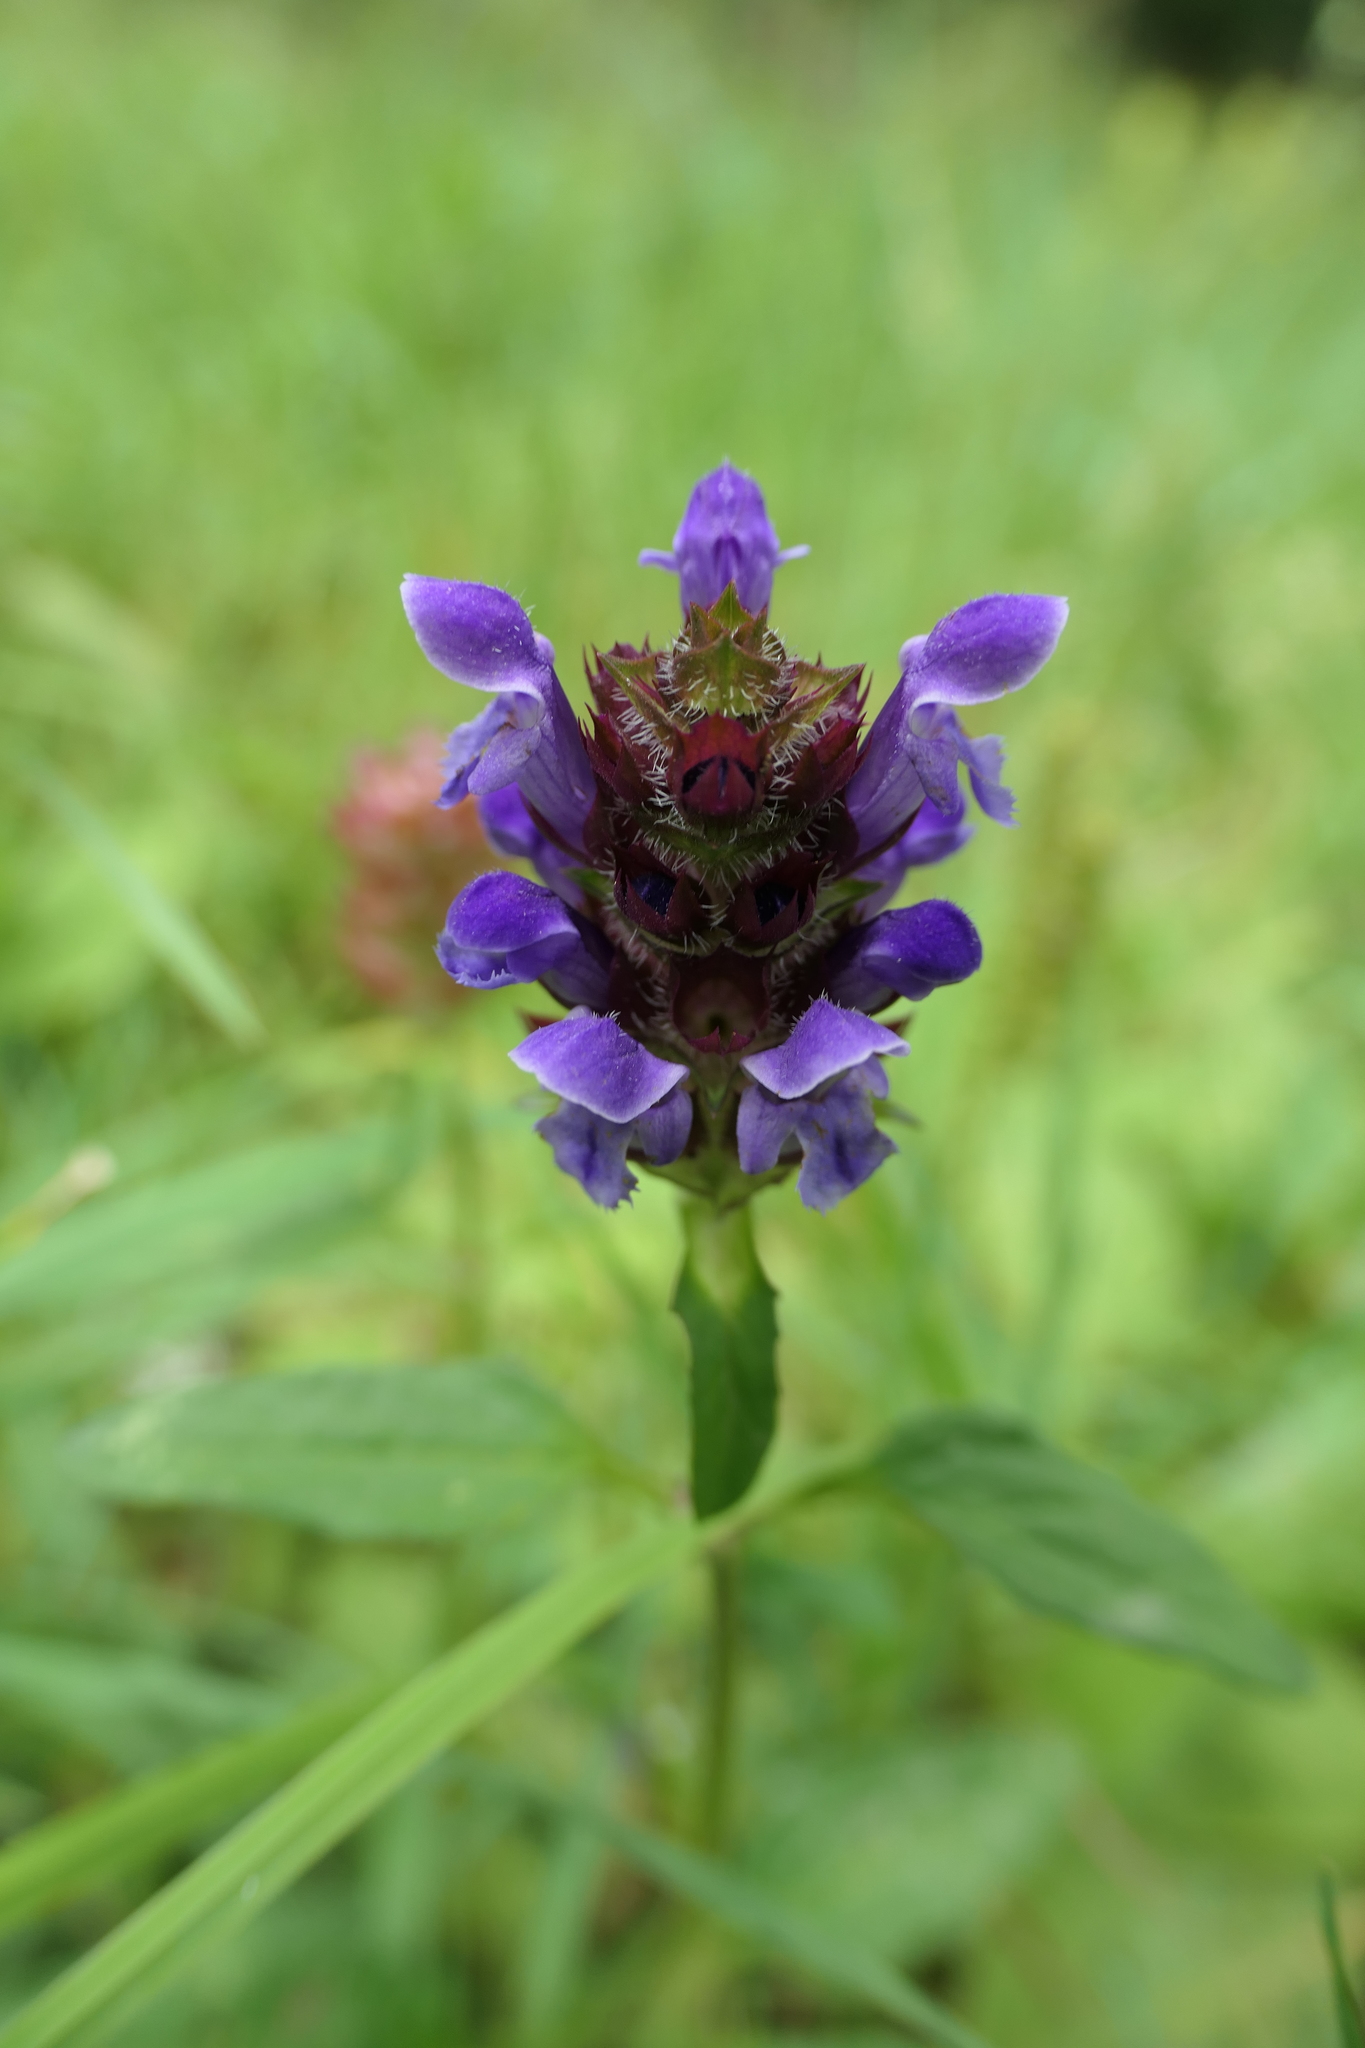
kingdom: Plantae
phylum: Tracheophyta
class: Magnoliopsida
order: Lamiales
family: Lamiaceae
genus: Prunella
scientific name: Prunella vulgaris
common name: Heal-all
